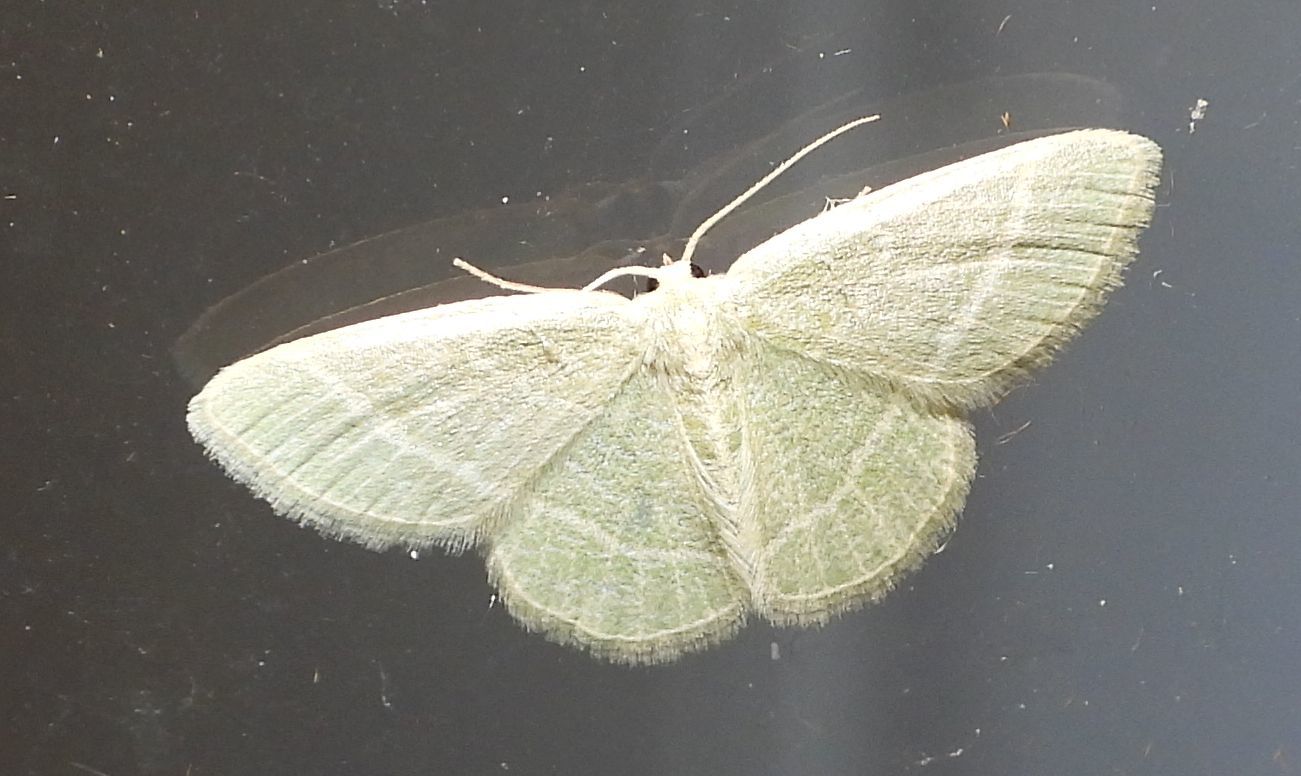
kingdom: Animalia
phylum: Arthropoda
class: Insecta
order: Lepidoptera
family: Geometridae
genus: Chlorochlamys
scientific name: Chlorochlamys chloroleucaria
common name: Blackberry looper
